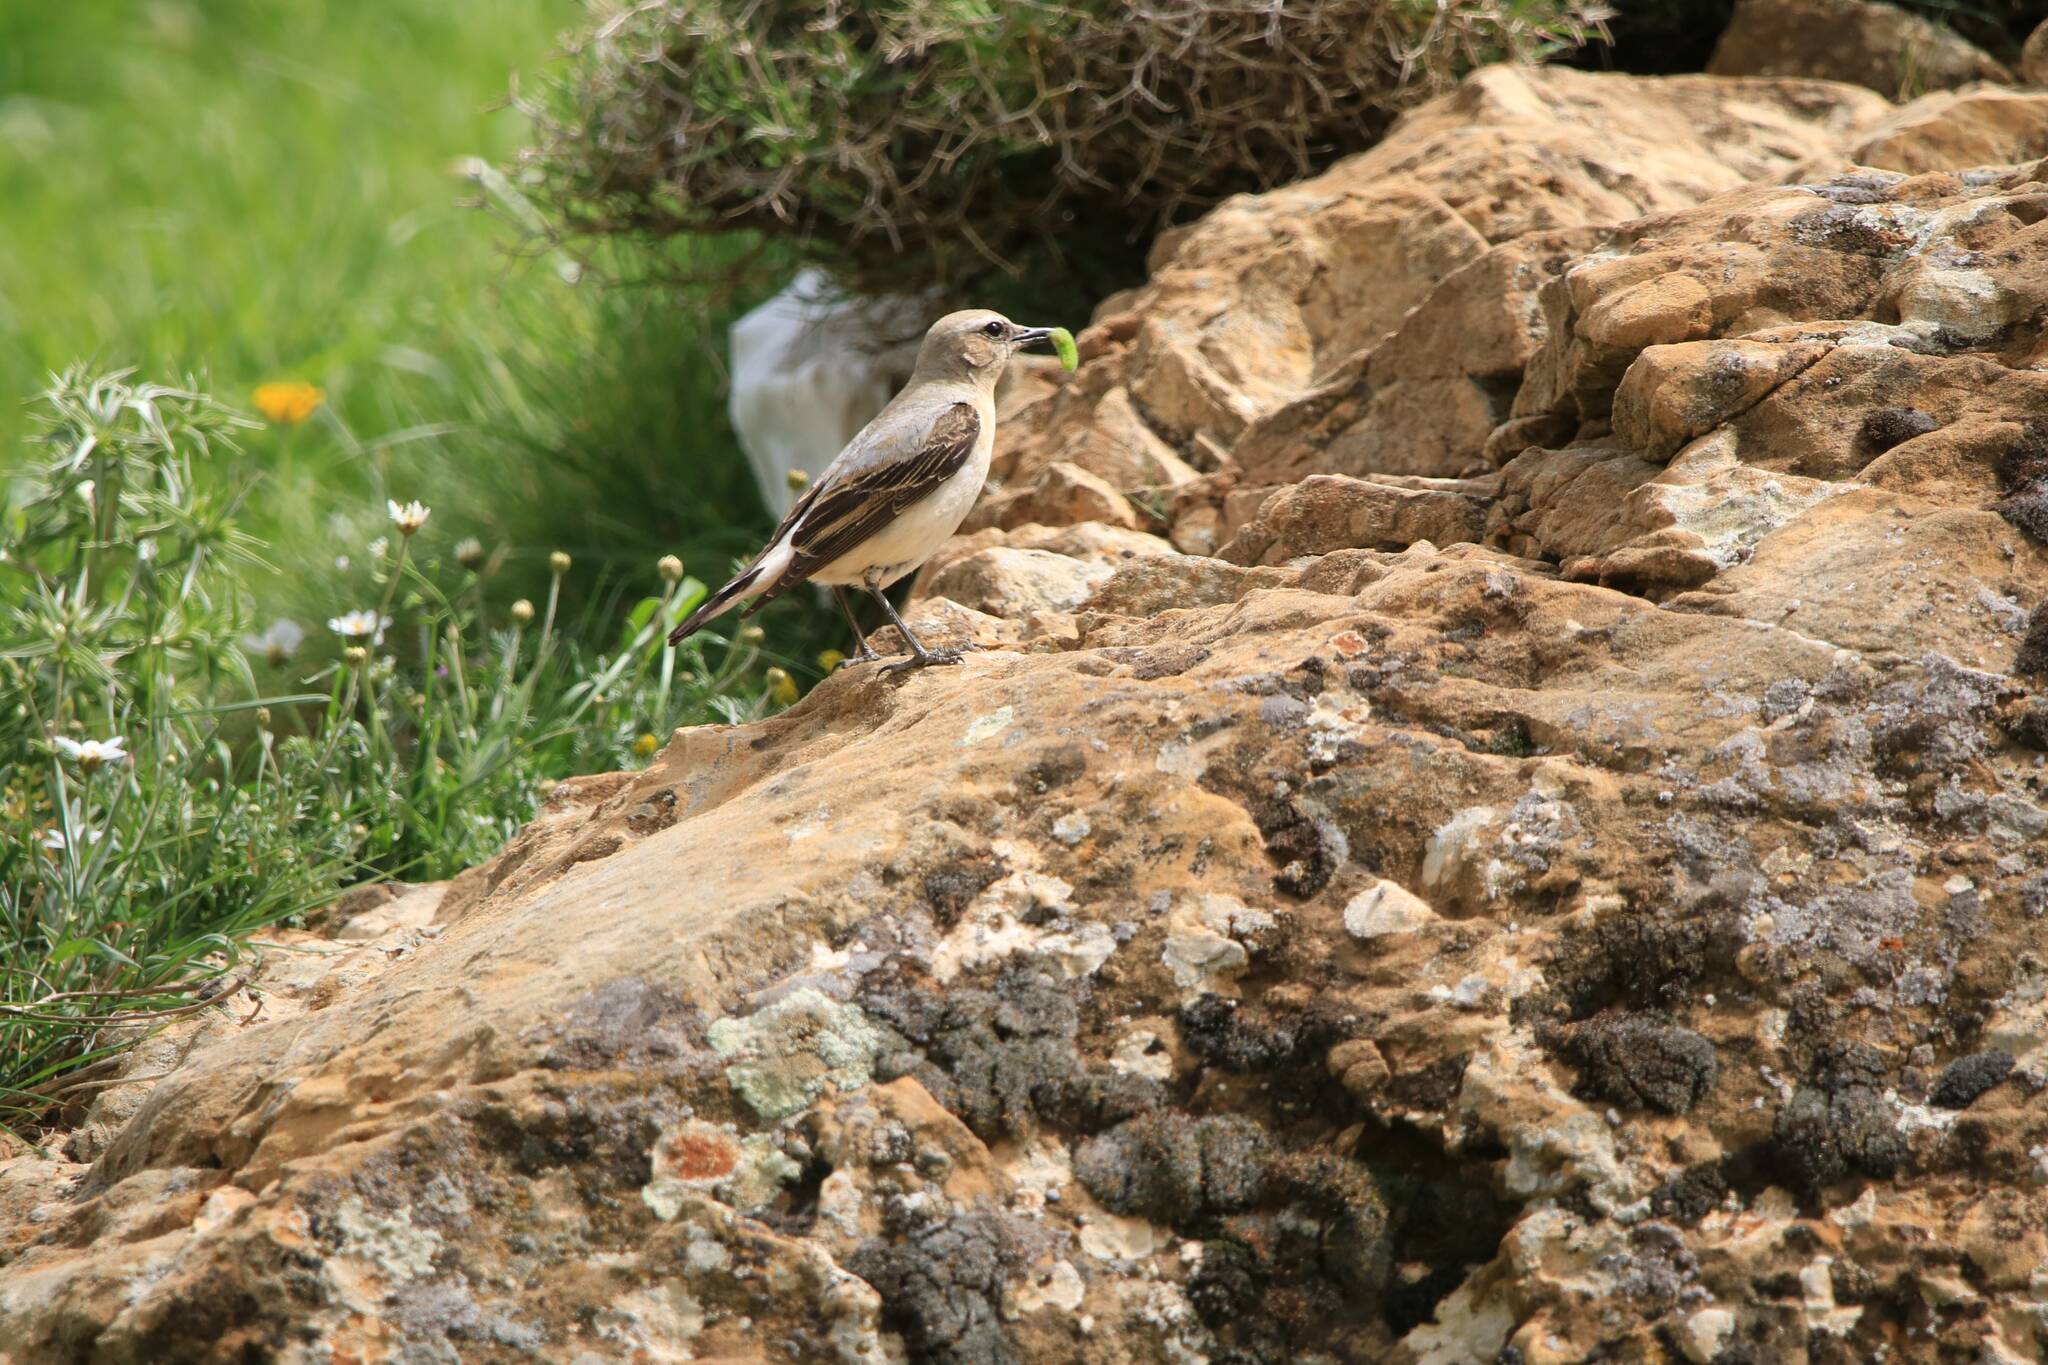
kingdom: Animalia
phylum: Chordata
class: Aves
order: Passeriformes
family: Muscicapidae
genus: Oenanthe
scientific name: Oenanthe oenanthe
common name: Northern wheatear
